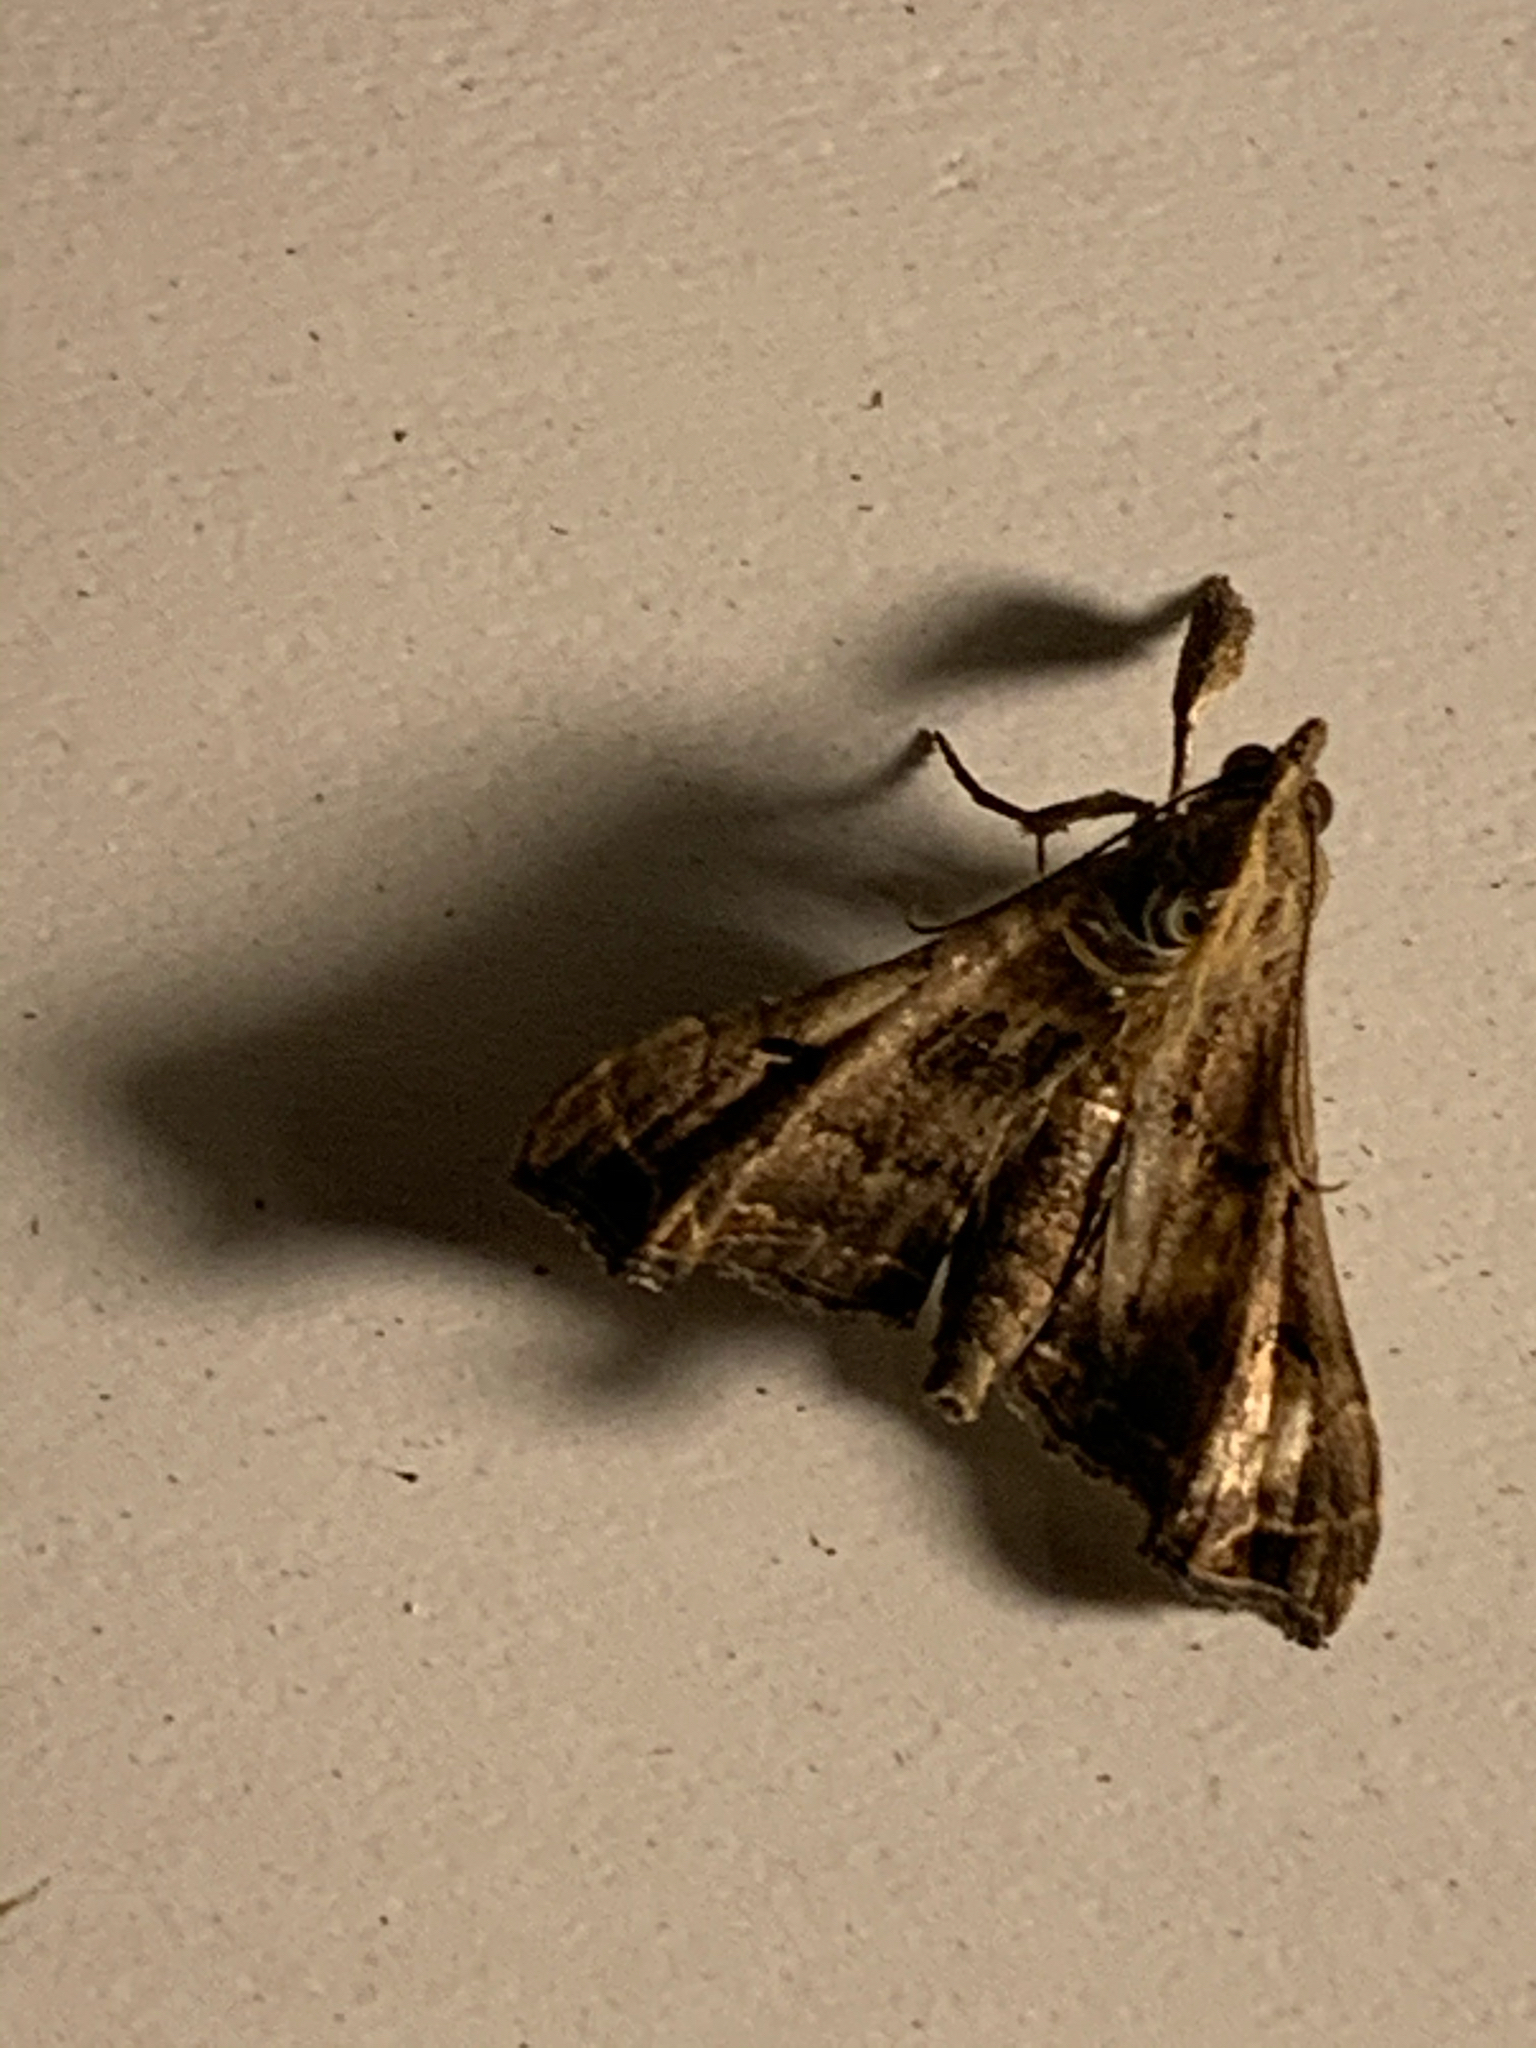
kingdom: Animalia
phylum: Arthropoda
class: Insecta
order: Lepidoptera
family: Erebidae
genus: Palthis
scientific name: Palthis asopialis
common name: Faint-spotted palthis moth
